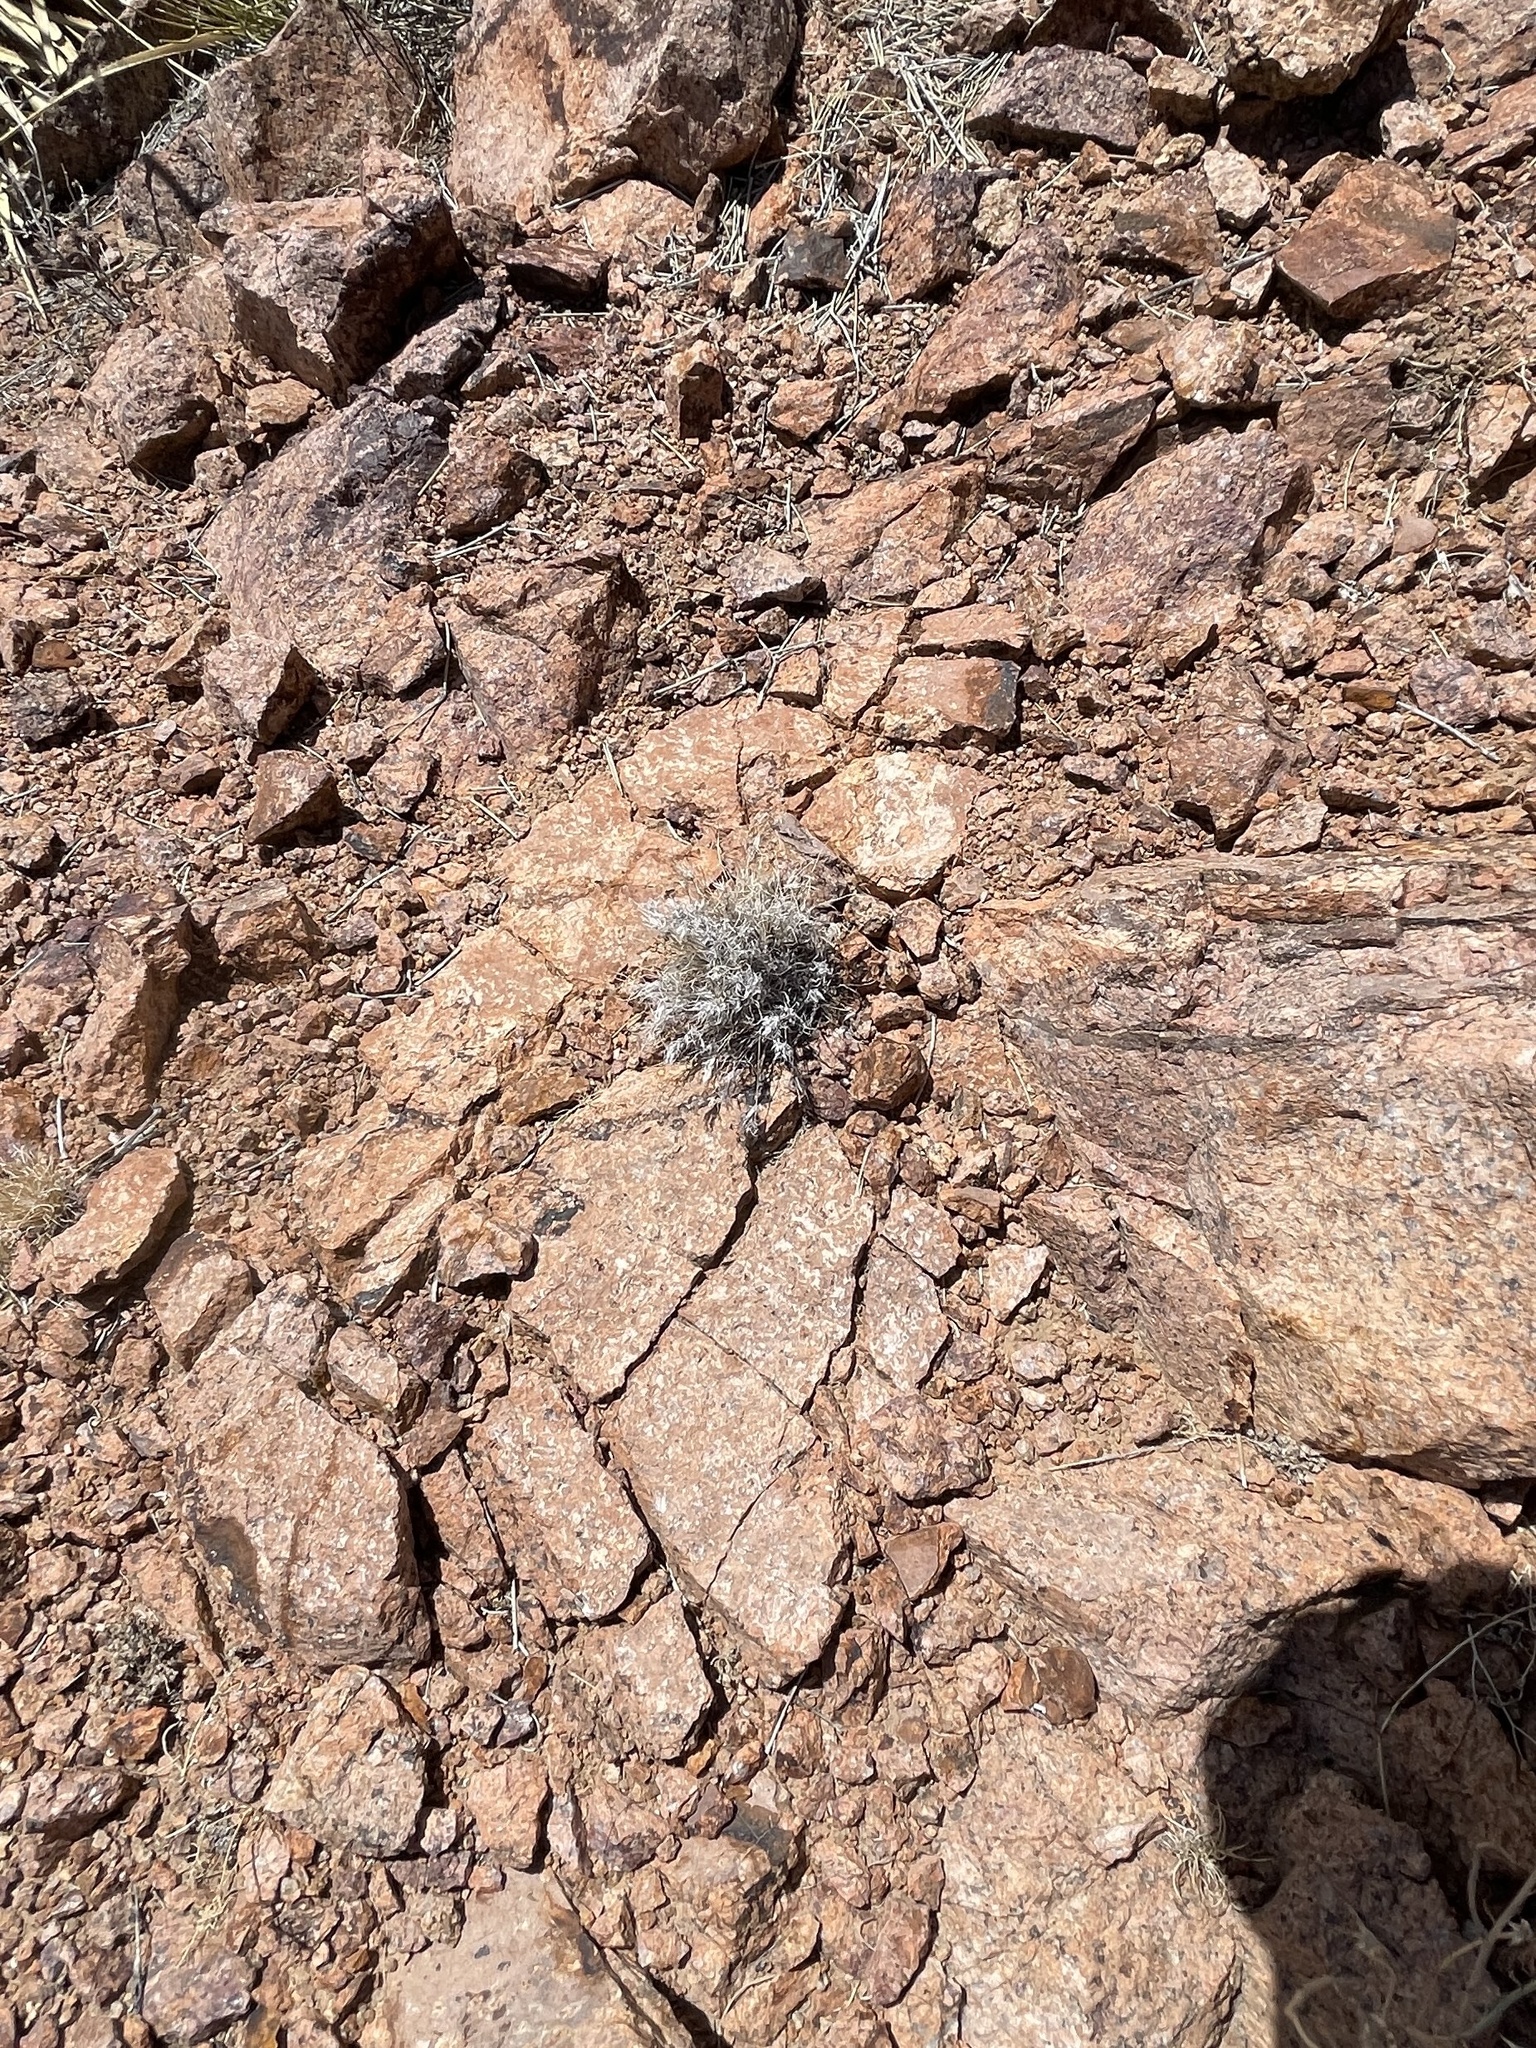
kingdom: Plantae
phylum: Tracheophyta
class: Liliopsida
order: Poales
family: Poaceae
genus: Dasyochloa
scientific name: Dasyochloa pulchella
